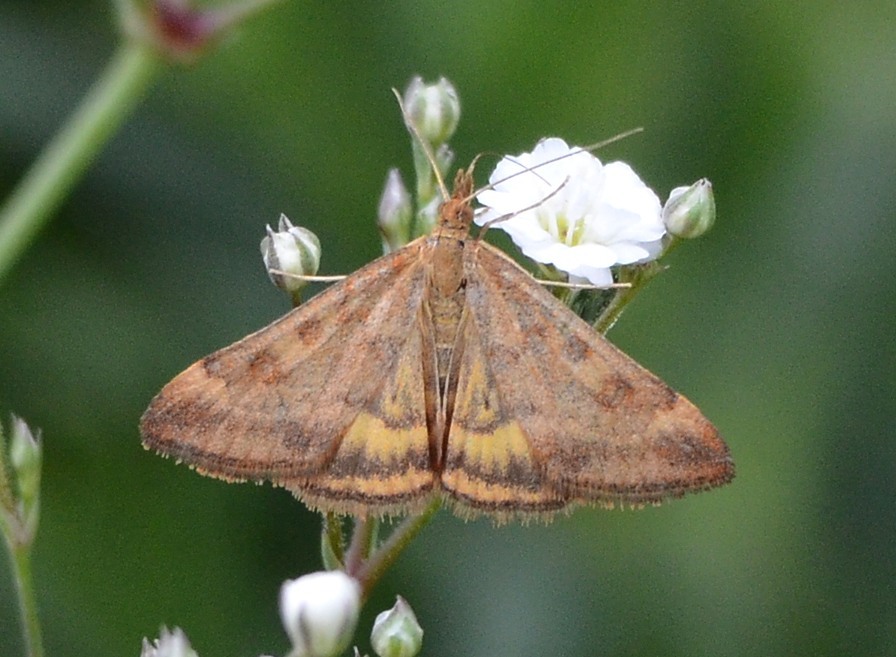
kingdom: Animalia
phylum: Arthropoda
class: Insecta
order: Lepidoptera
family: Crambidae
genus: Pyrausta
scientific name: Pyrausta subsequalis
